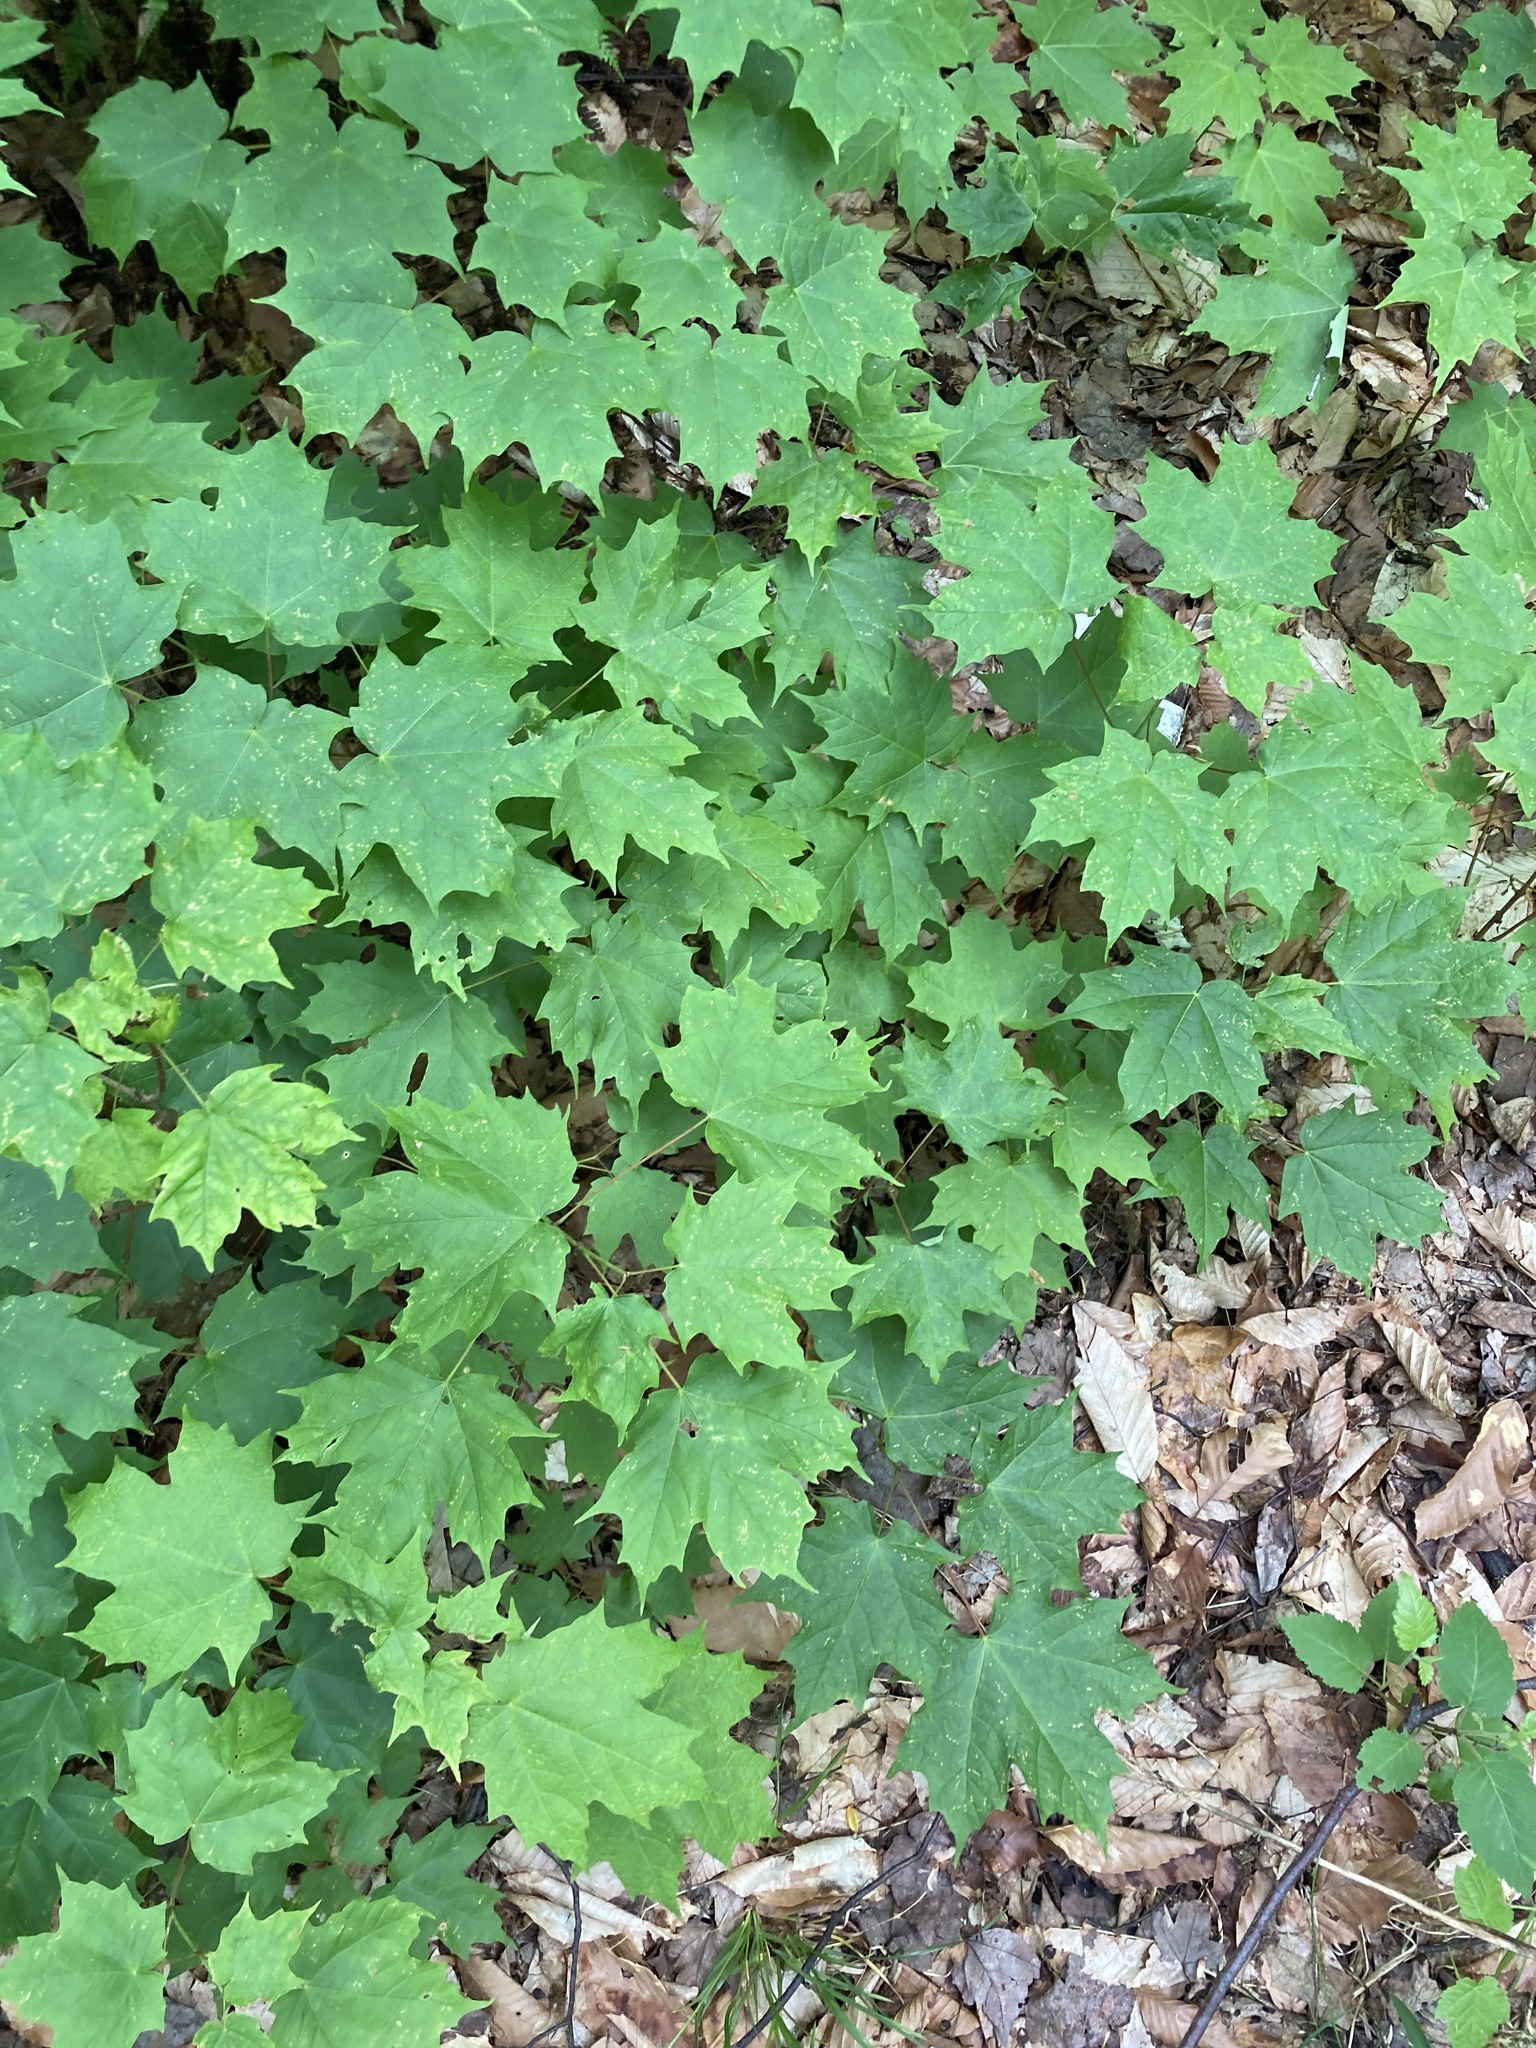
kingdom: Plantae
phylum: Tracheophyta
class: Magnoliopsida
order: Sapindales
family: Sapindaceae
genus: Acer
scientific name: Acer saccharum
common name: Sugar maple
